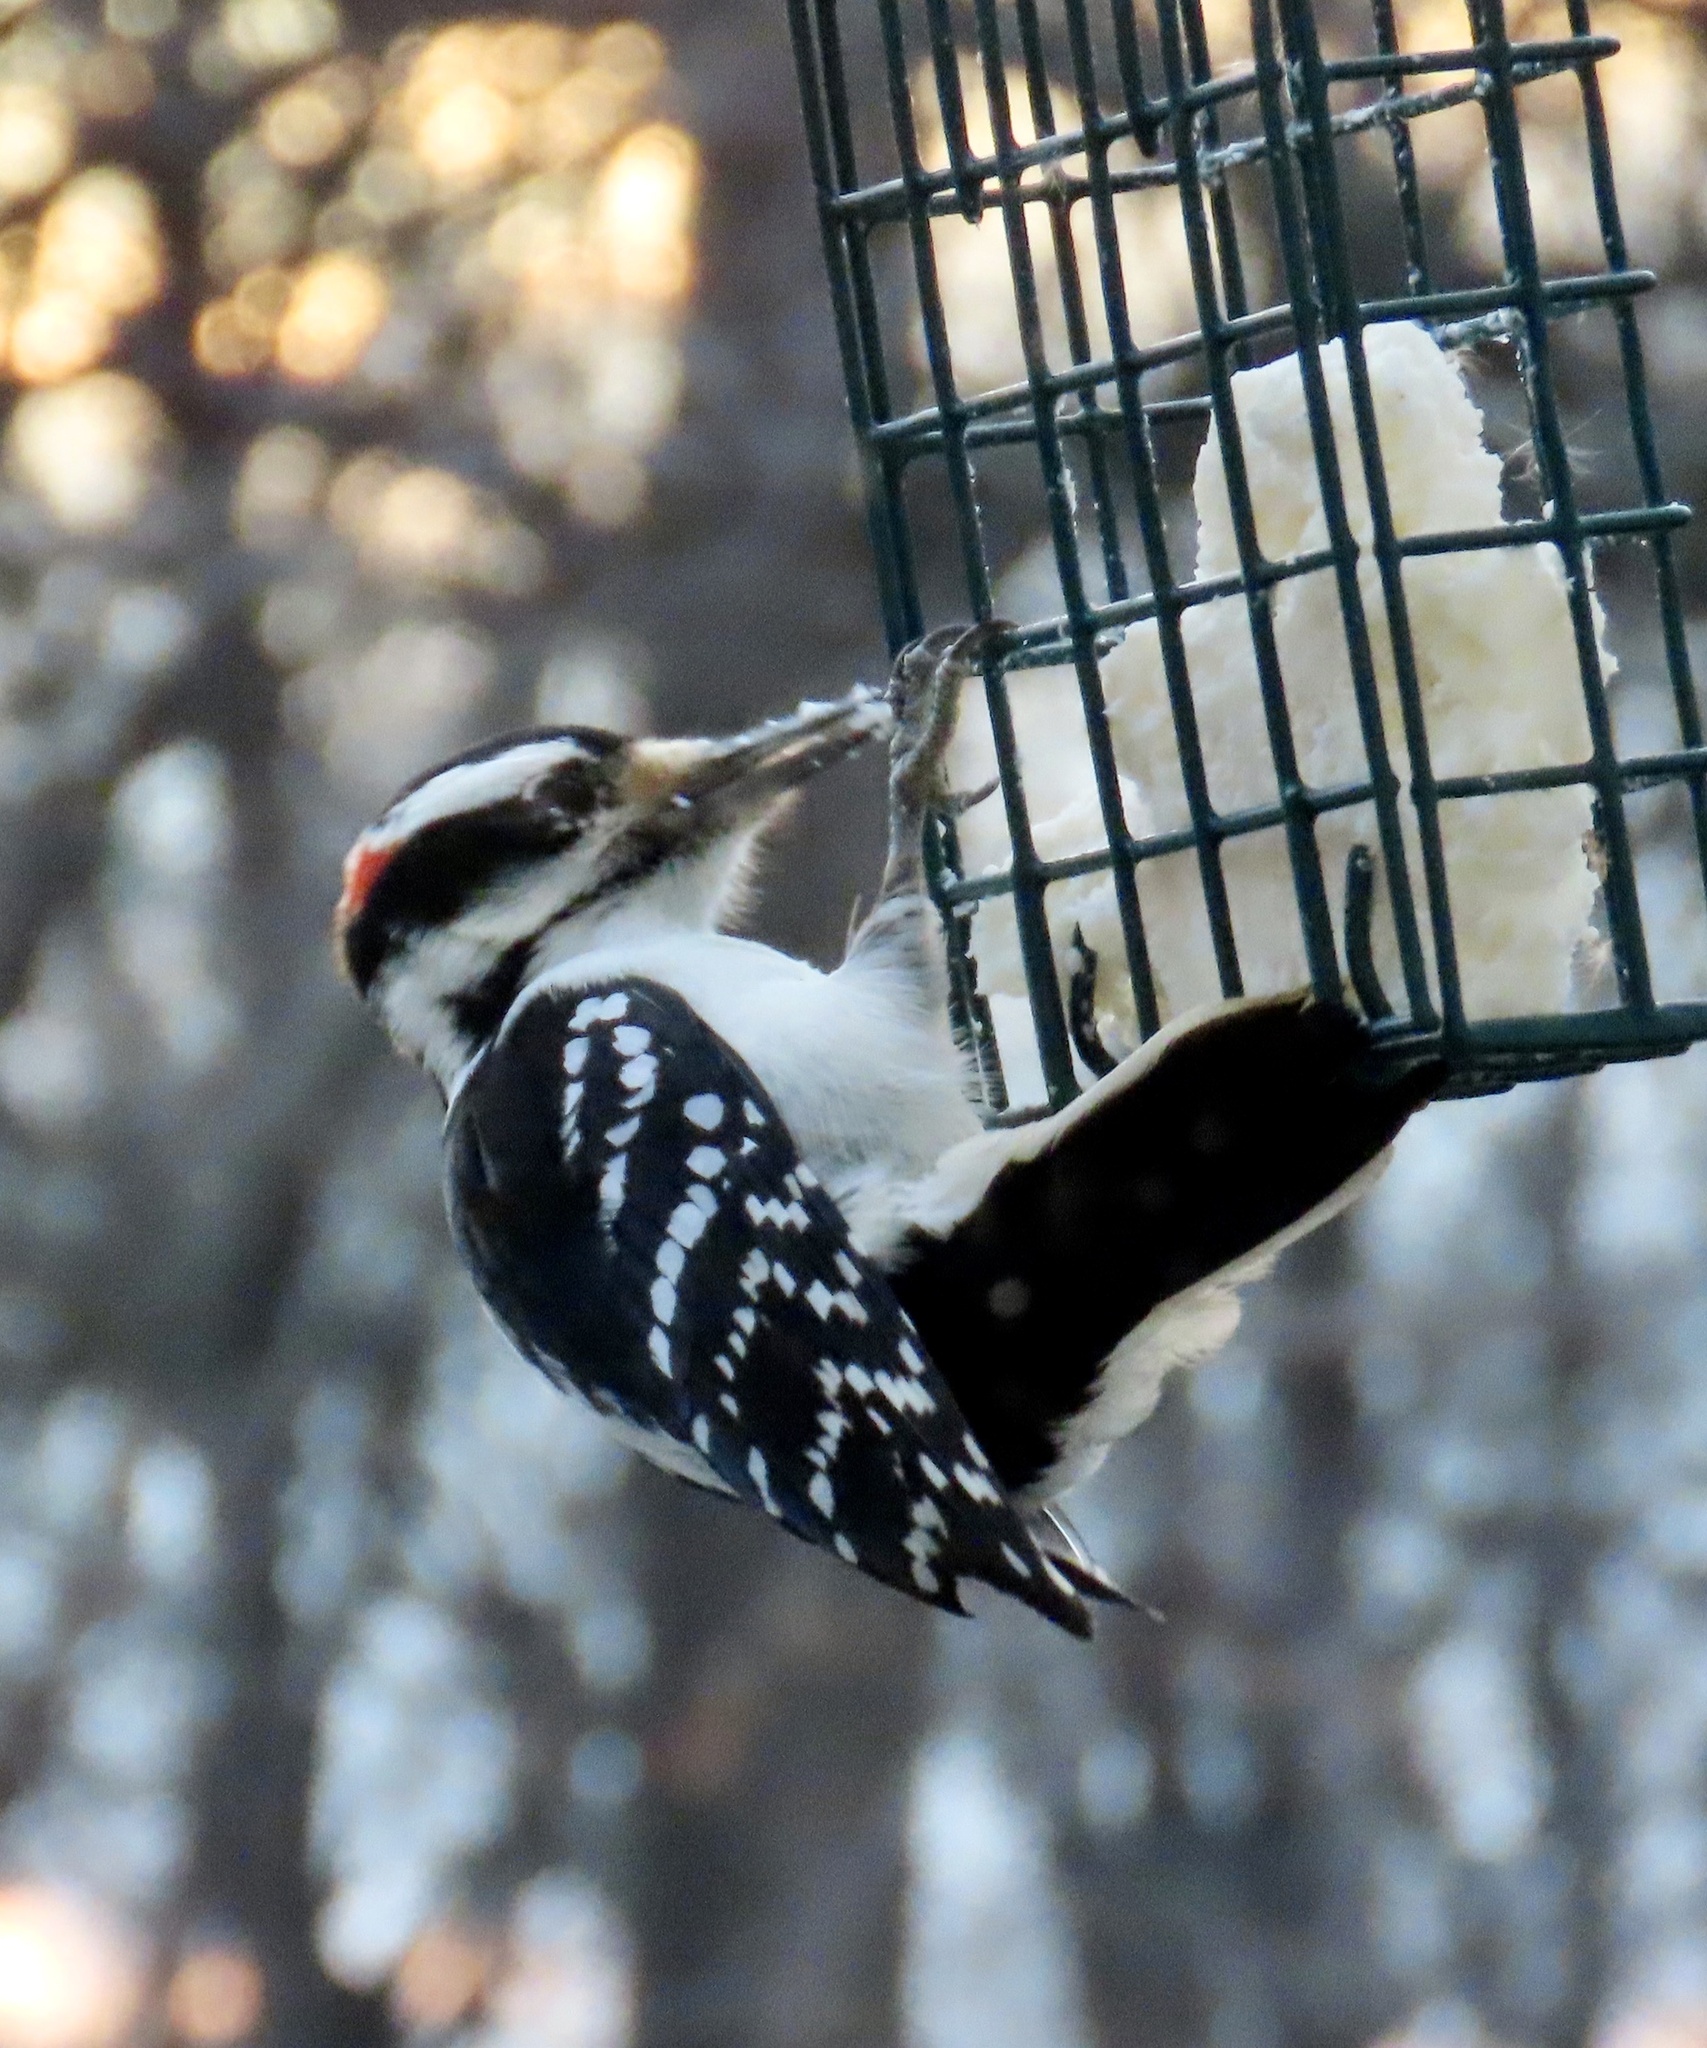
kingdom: Animalia
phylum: Chordata
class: Aves
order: Piciformes
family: Picidae
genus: Leuconotopicus
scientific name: Leuconotopicus villosus
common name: Hairy woodpecker
